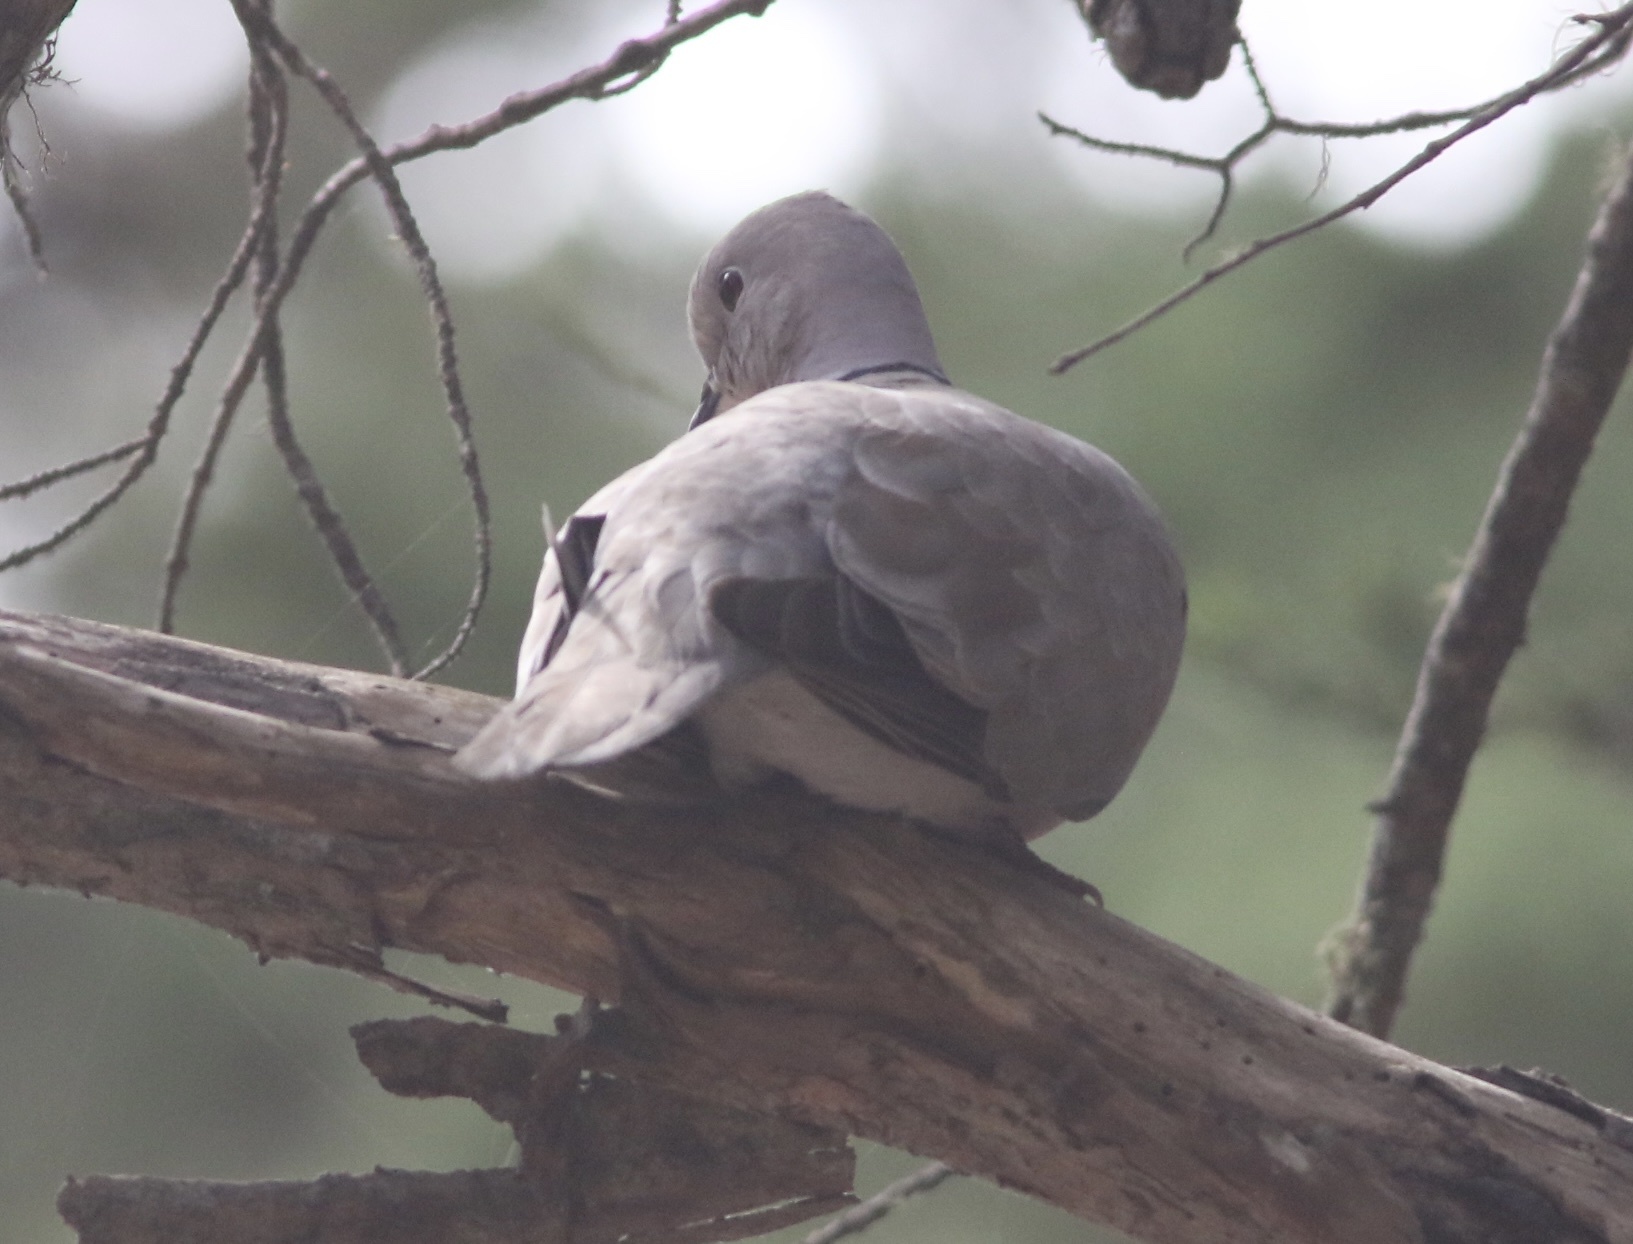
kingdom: Animalia
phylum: Chordata
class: Aves
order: Columbiformes
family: Columbidae
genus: Streptopelia
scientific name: Streptopelia decaocto
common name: Eurasian collared dove
